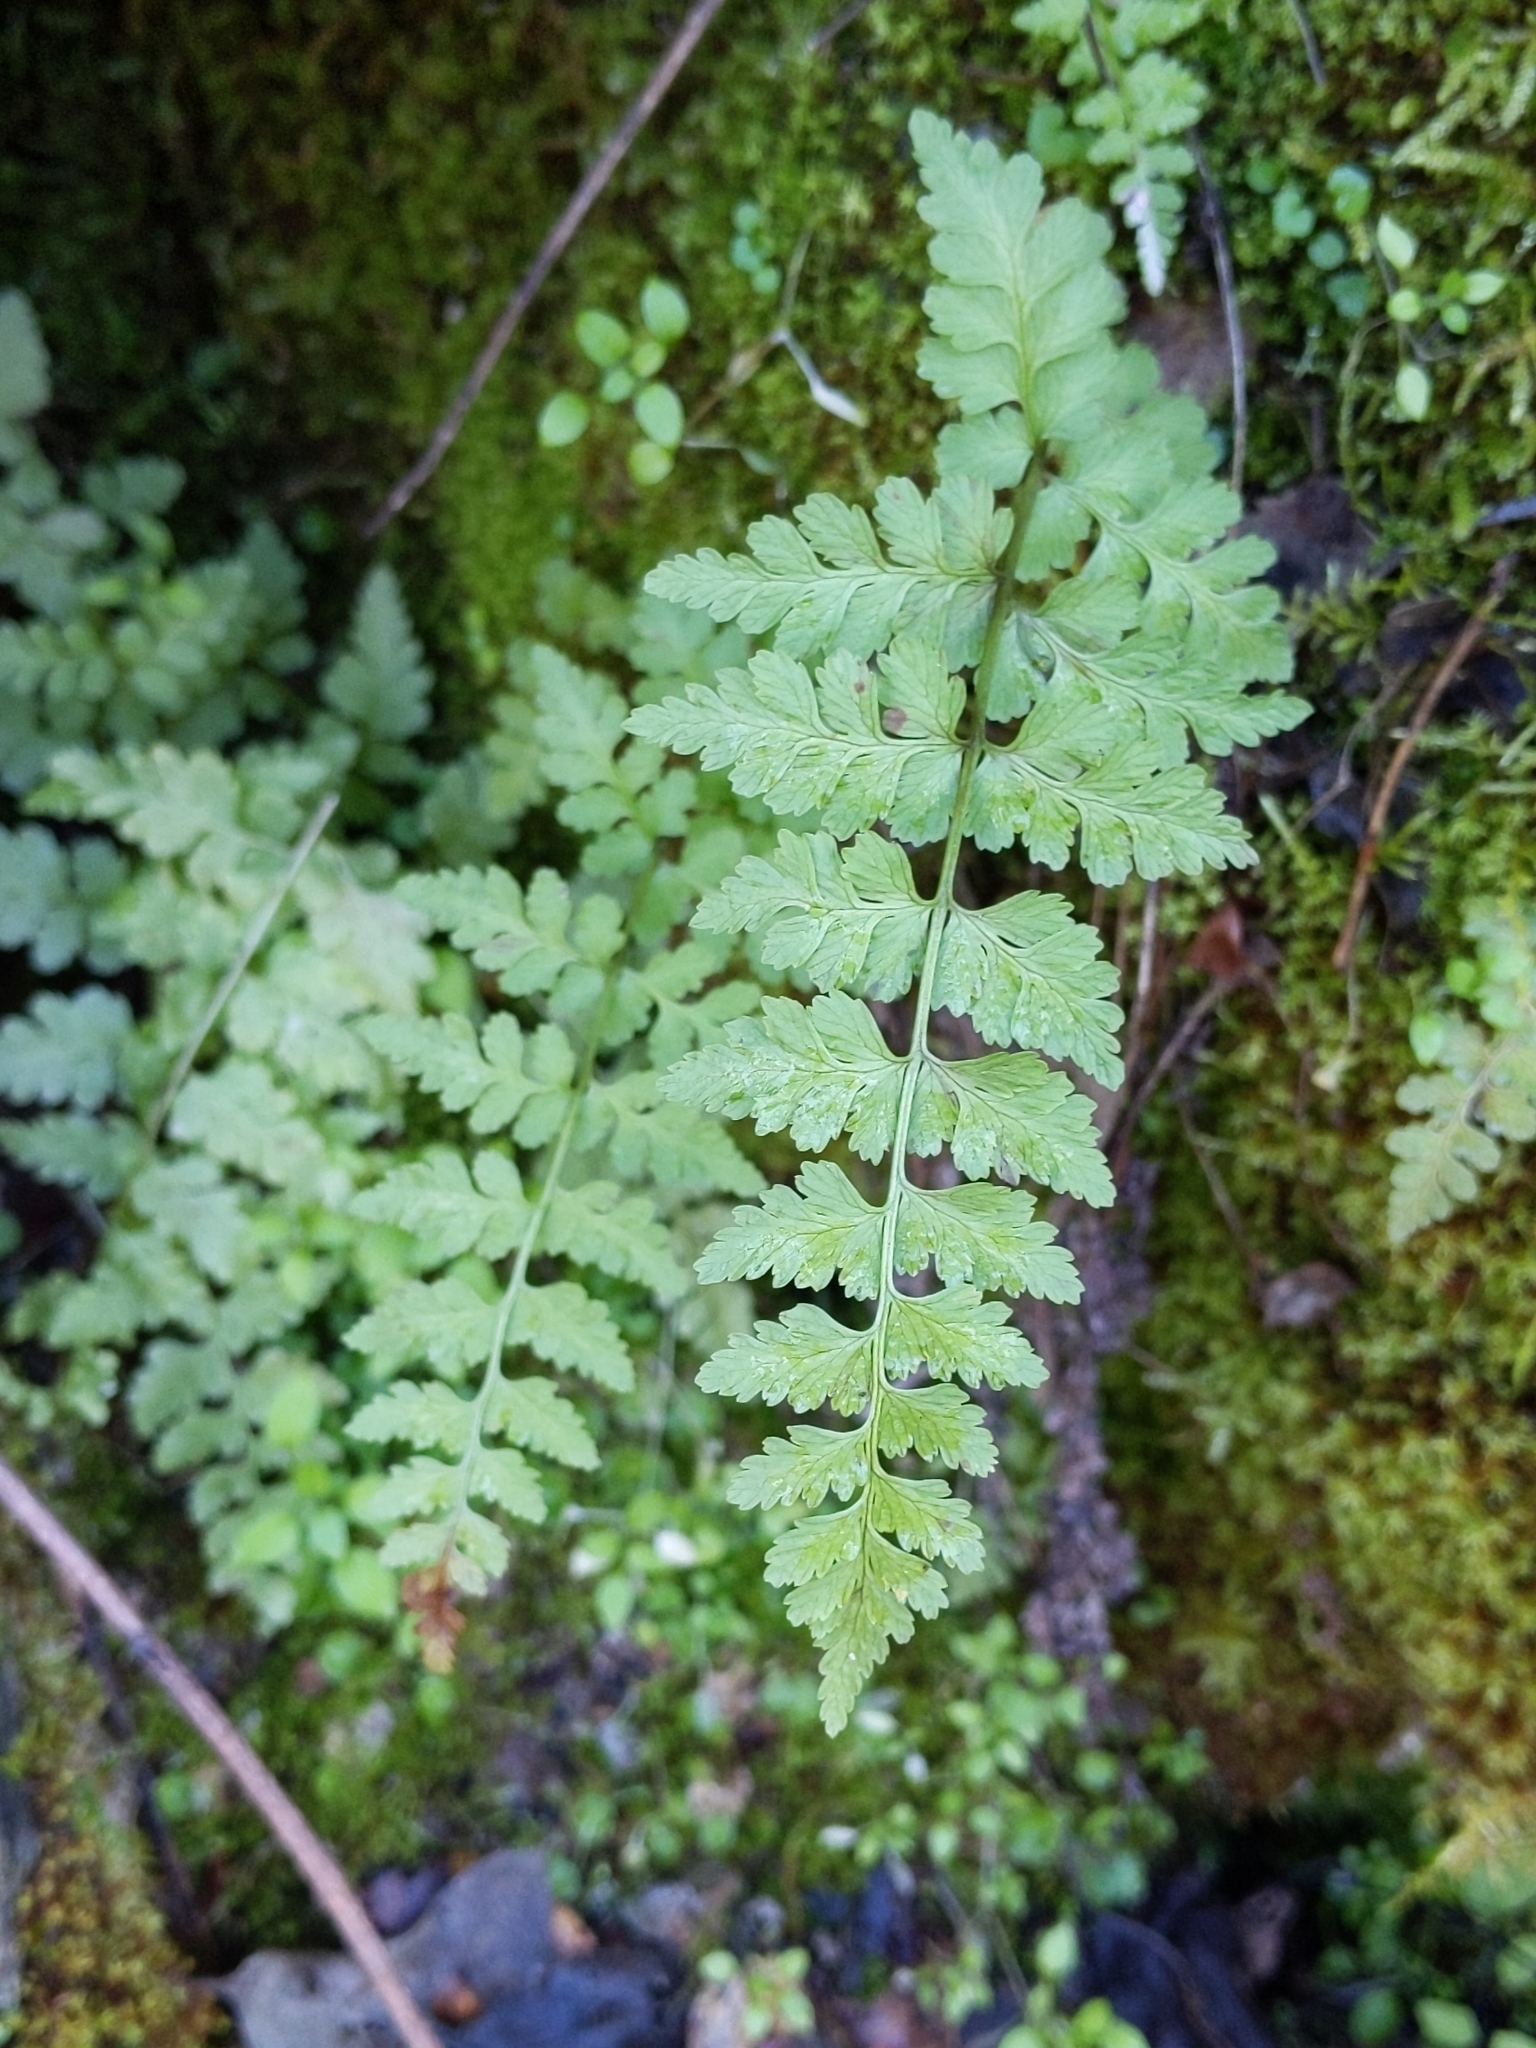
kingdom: Plantae
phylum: Tracheophyta
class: Polypodiopsida
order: Polypodiales
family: Cystopteridaceae
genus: Cystopteris
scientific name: Cystopteris fragilis
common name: Brittle bladder fern
